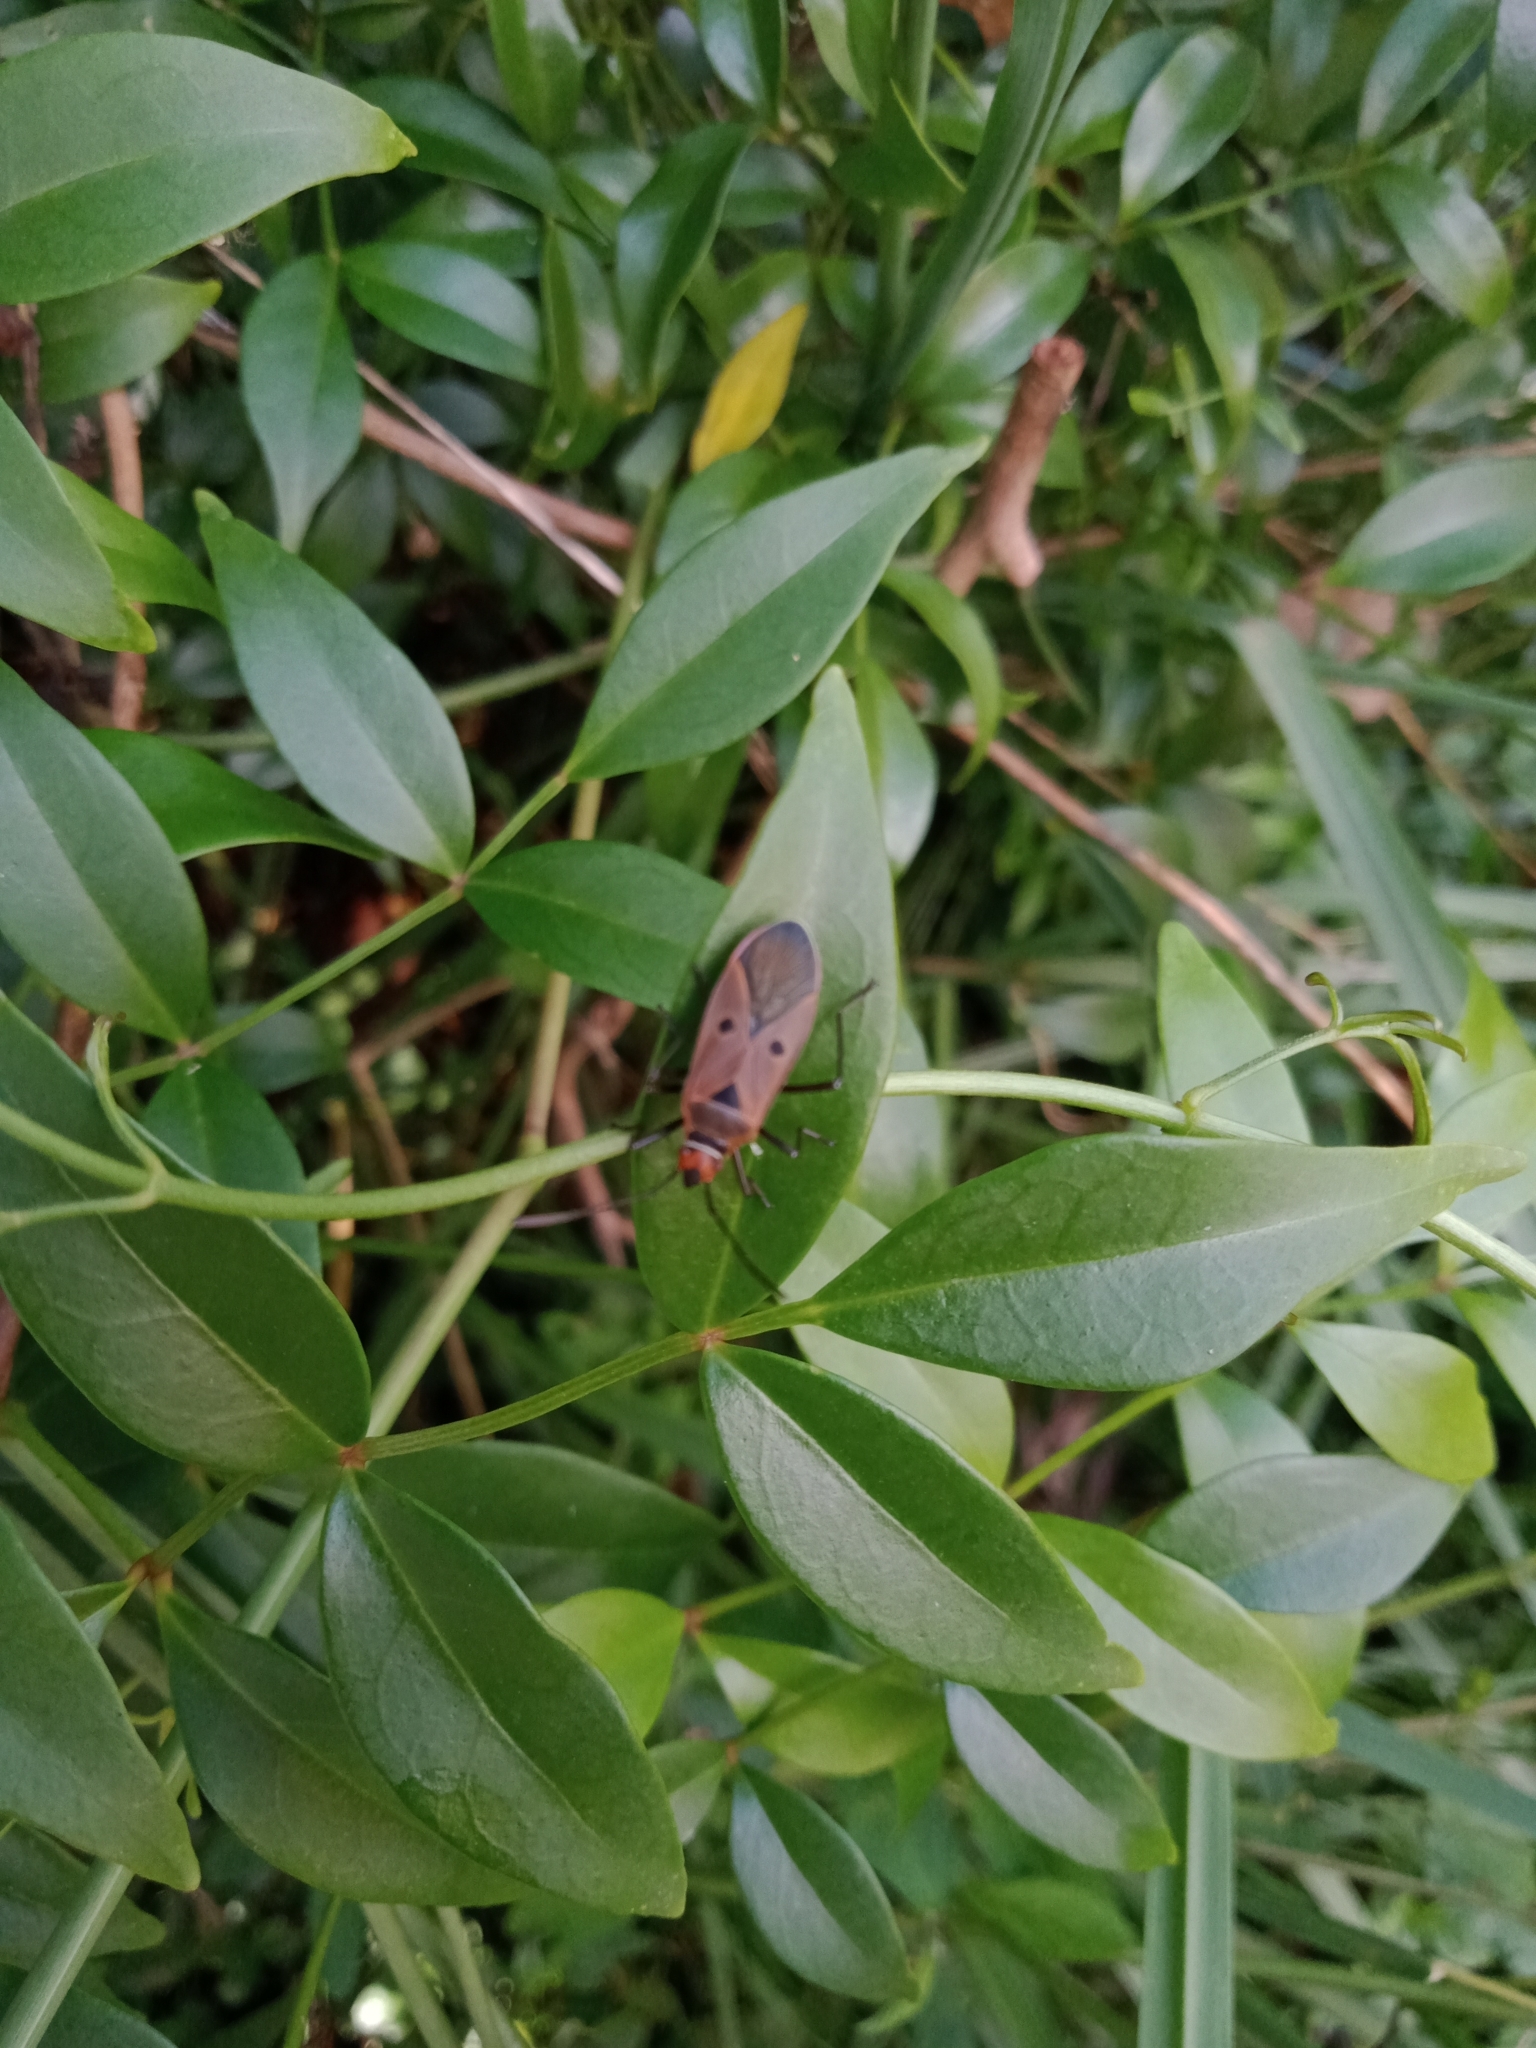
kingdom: Animalia
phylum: Arthropoda
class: Insecta
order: Hemiptera
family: Pyrrhocoridae
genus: Dysdercus
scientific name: Dysdercus sidae
